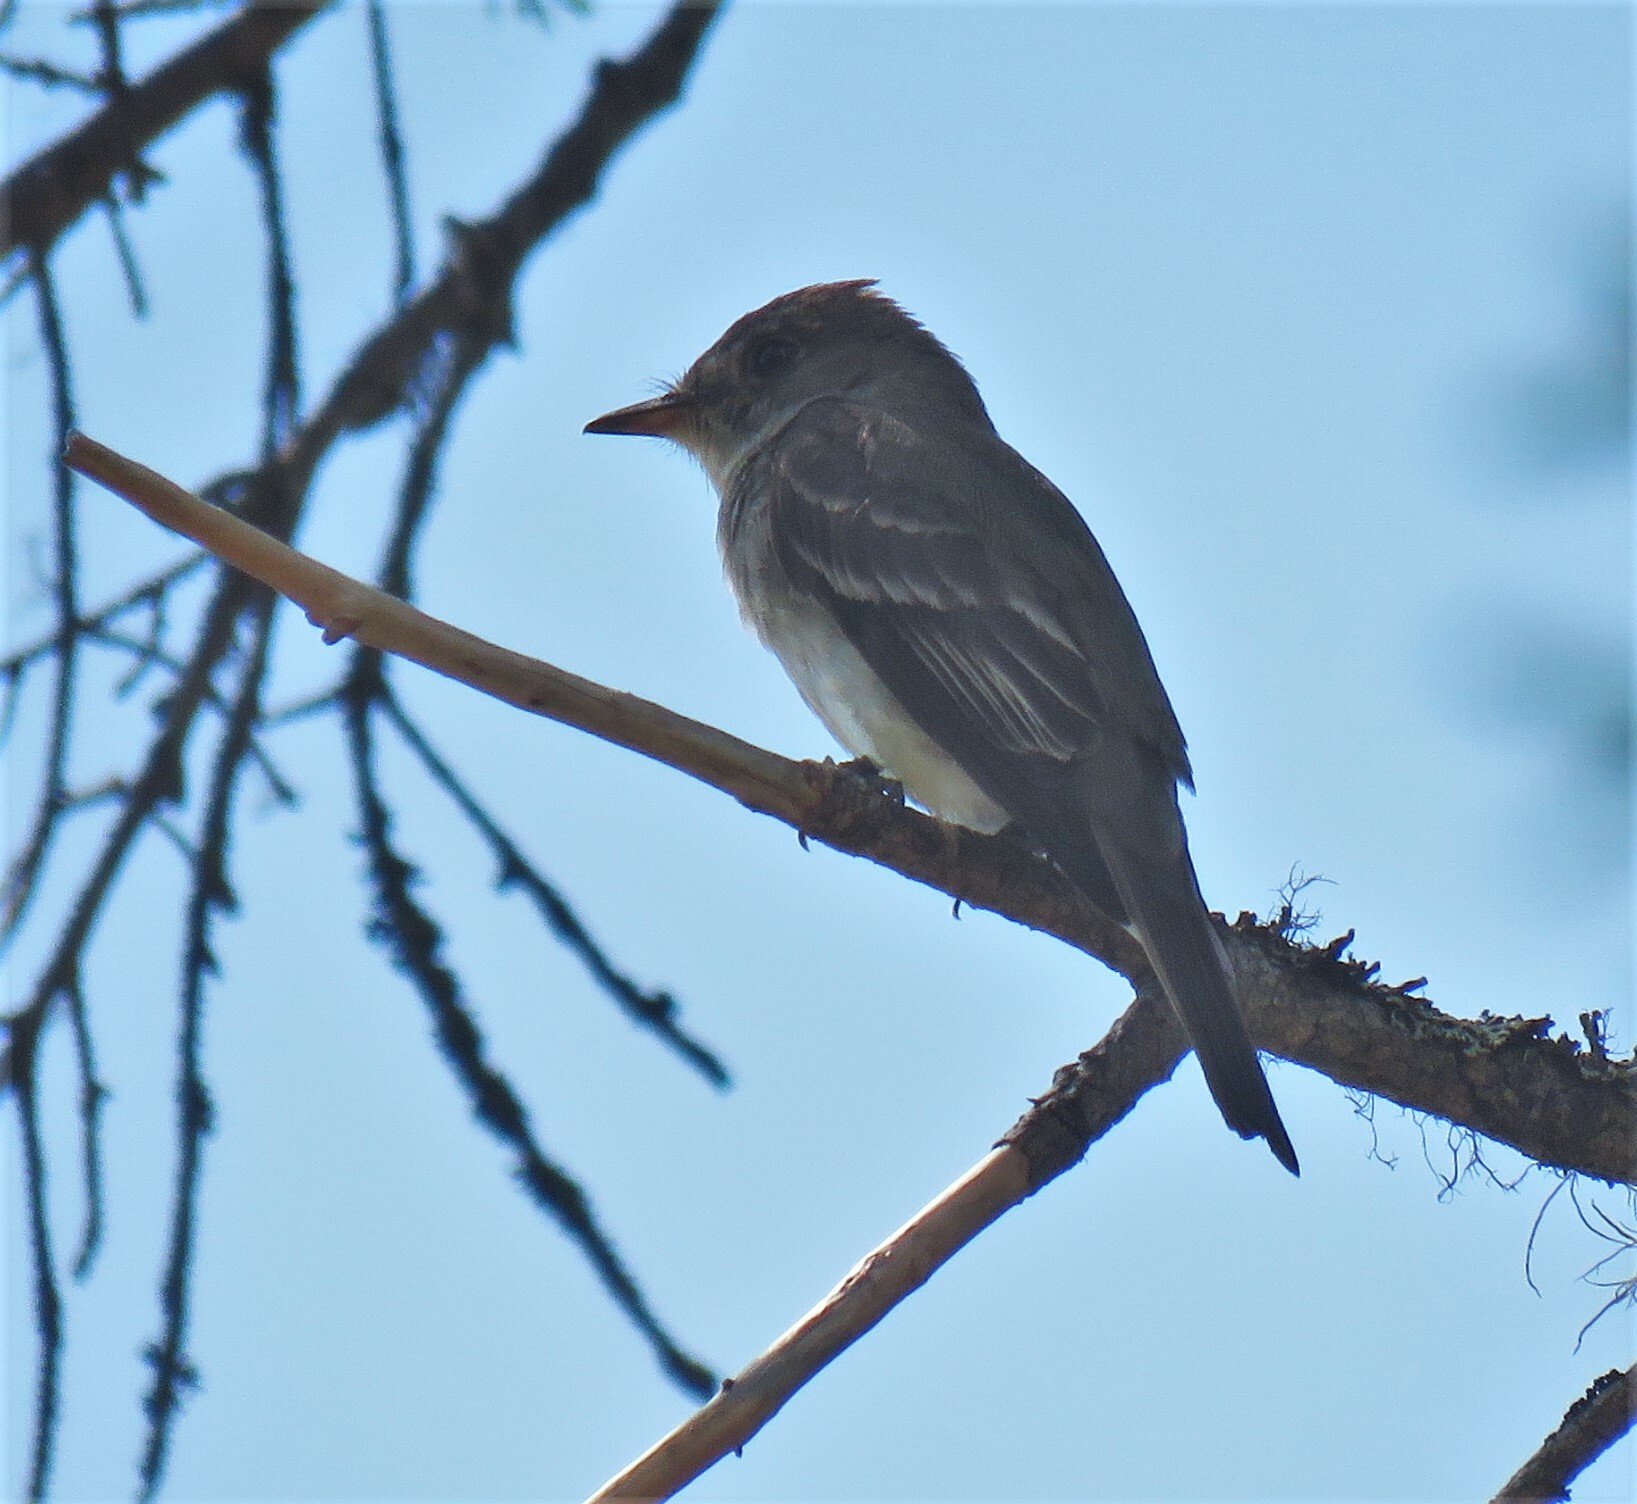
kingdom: Animalia
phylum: Chordata
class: Aves
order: Passeriformes
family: Tyrannidae
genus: Contopus
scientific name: Contopus virens
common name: Eastern wood-pewee
